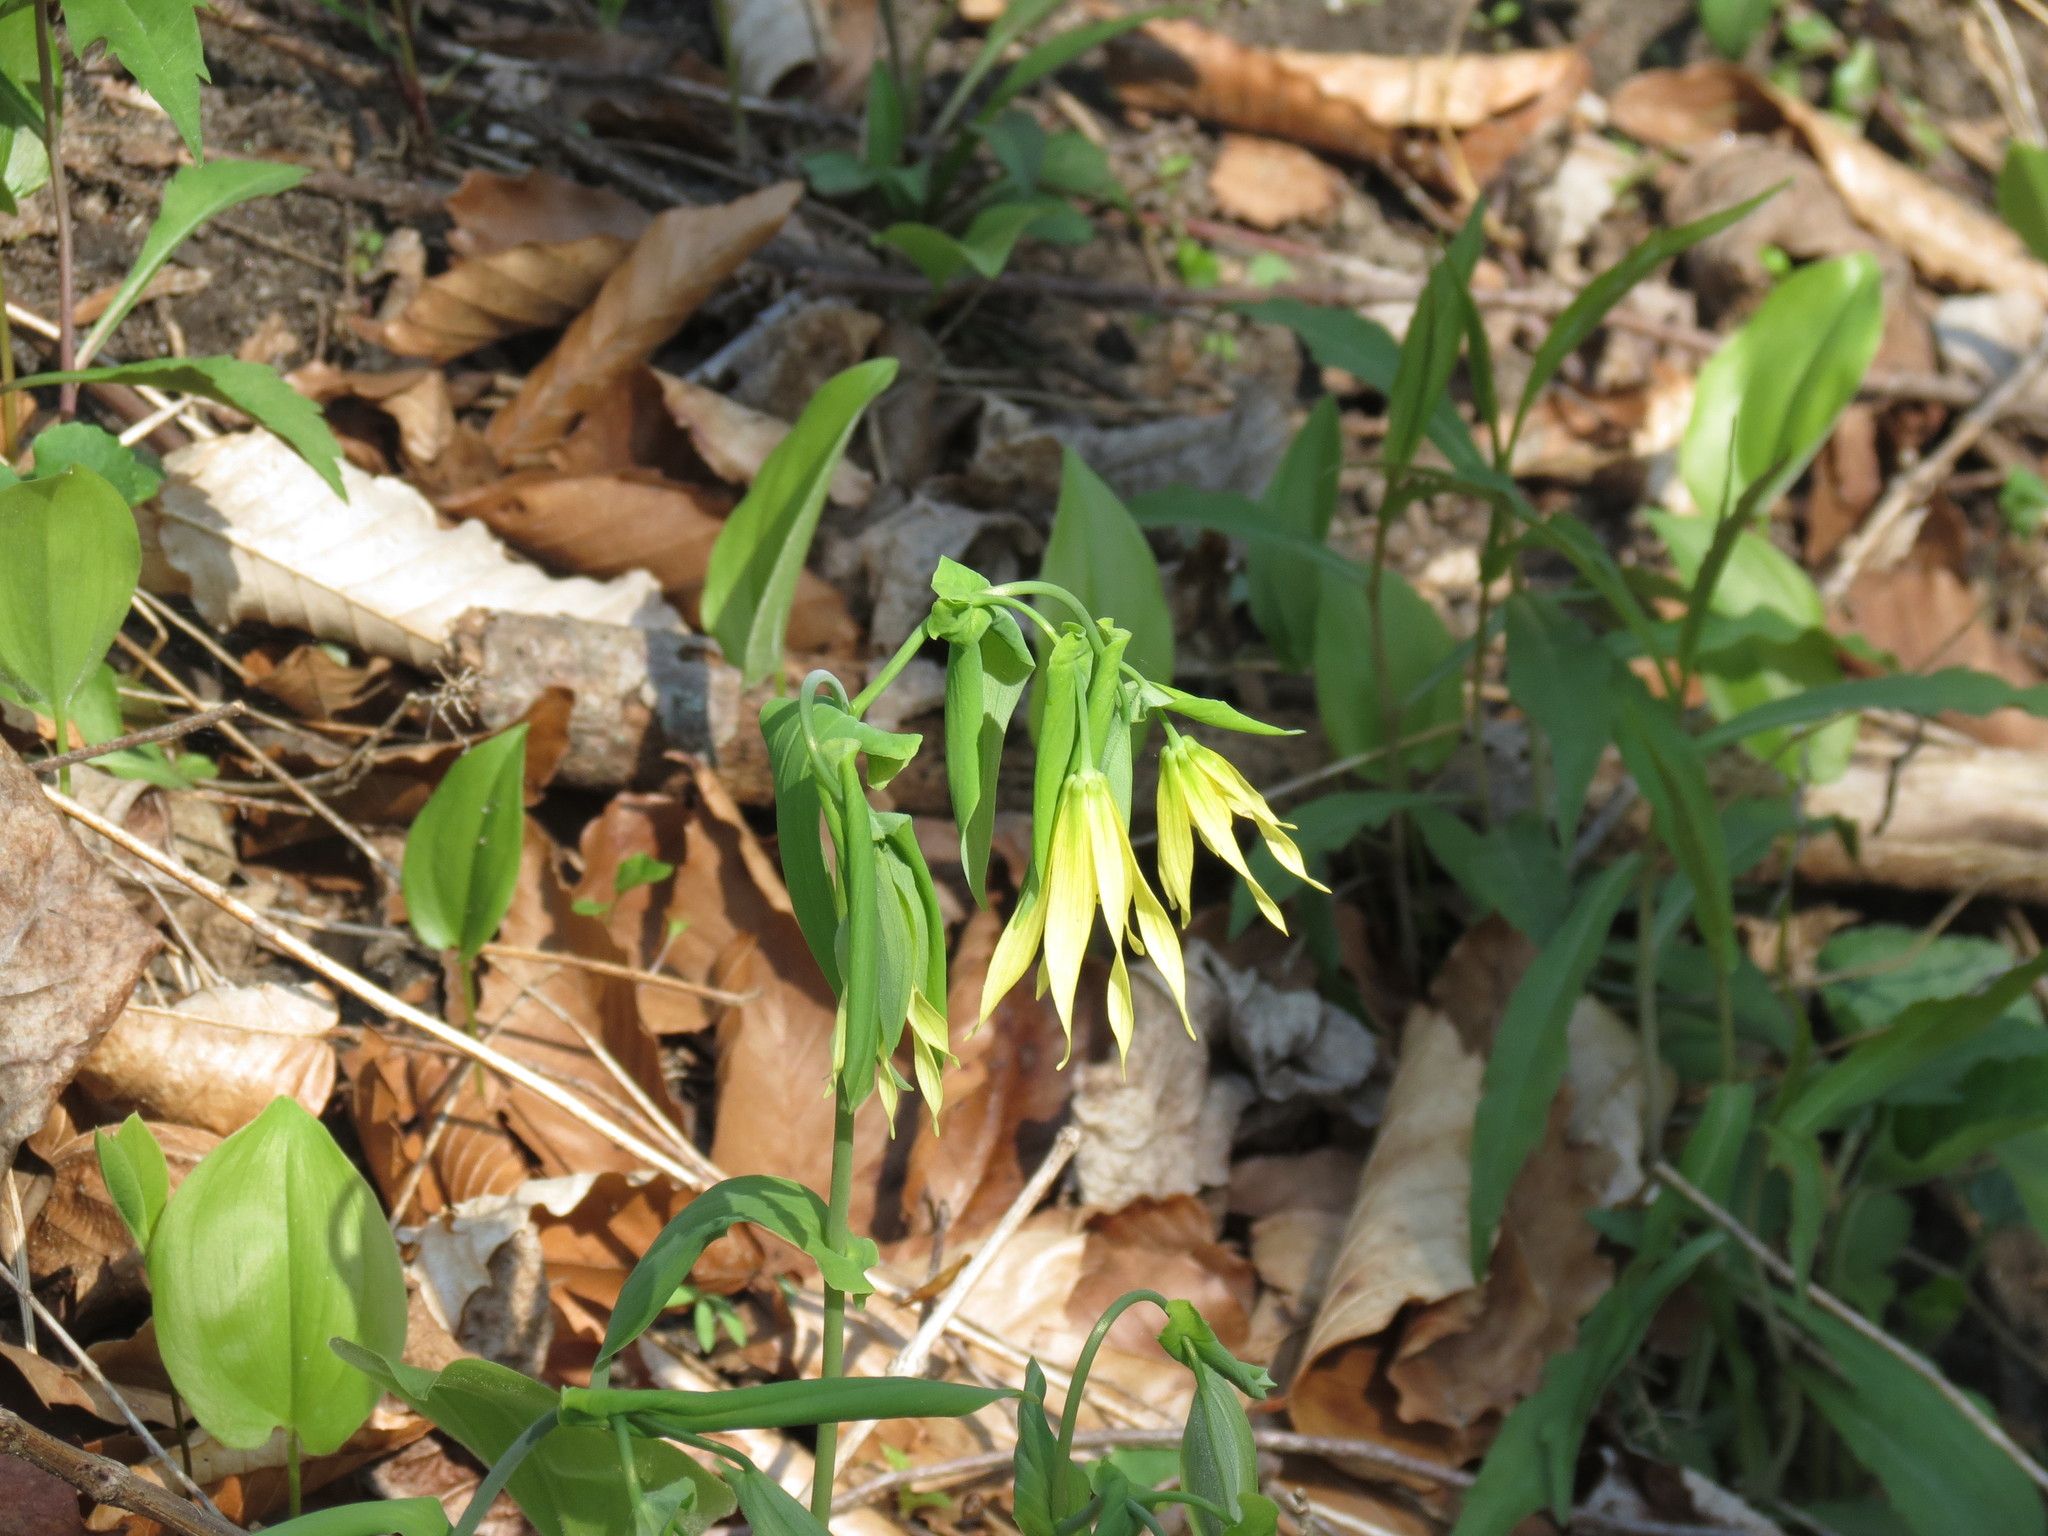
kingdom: Plantae
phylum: Tracheophyta
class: Liliopsida
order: Liliales
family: Colchicaceae
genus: Uvularia
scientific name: Uvularia grandiflora
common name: Bellwort
